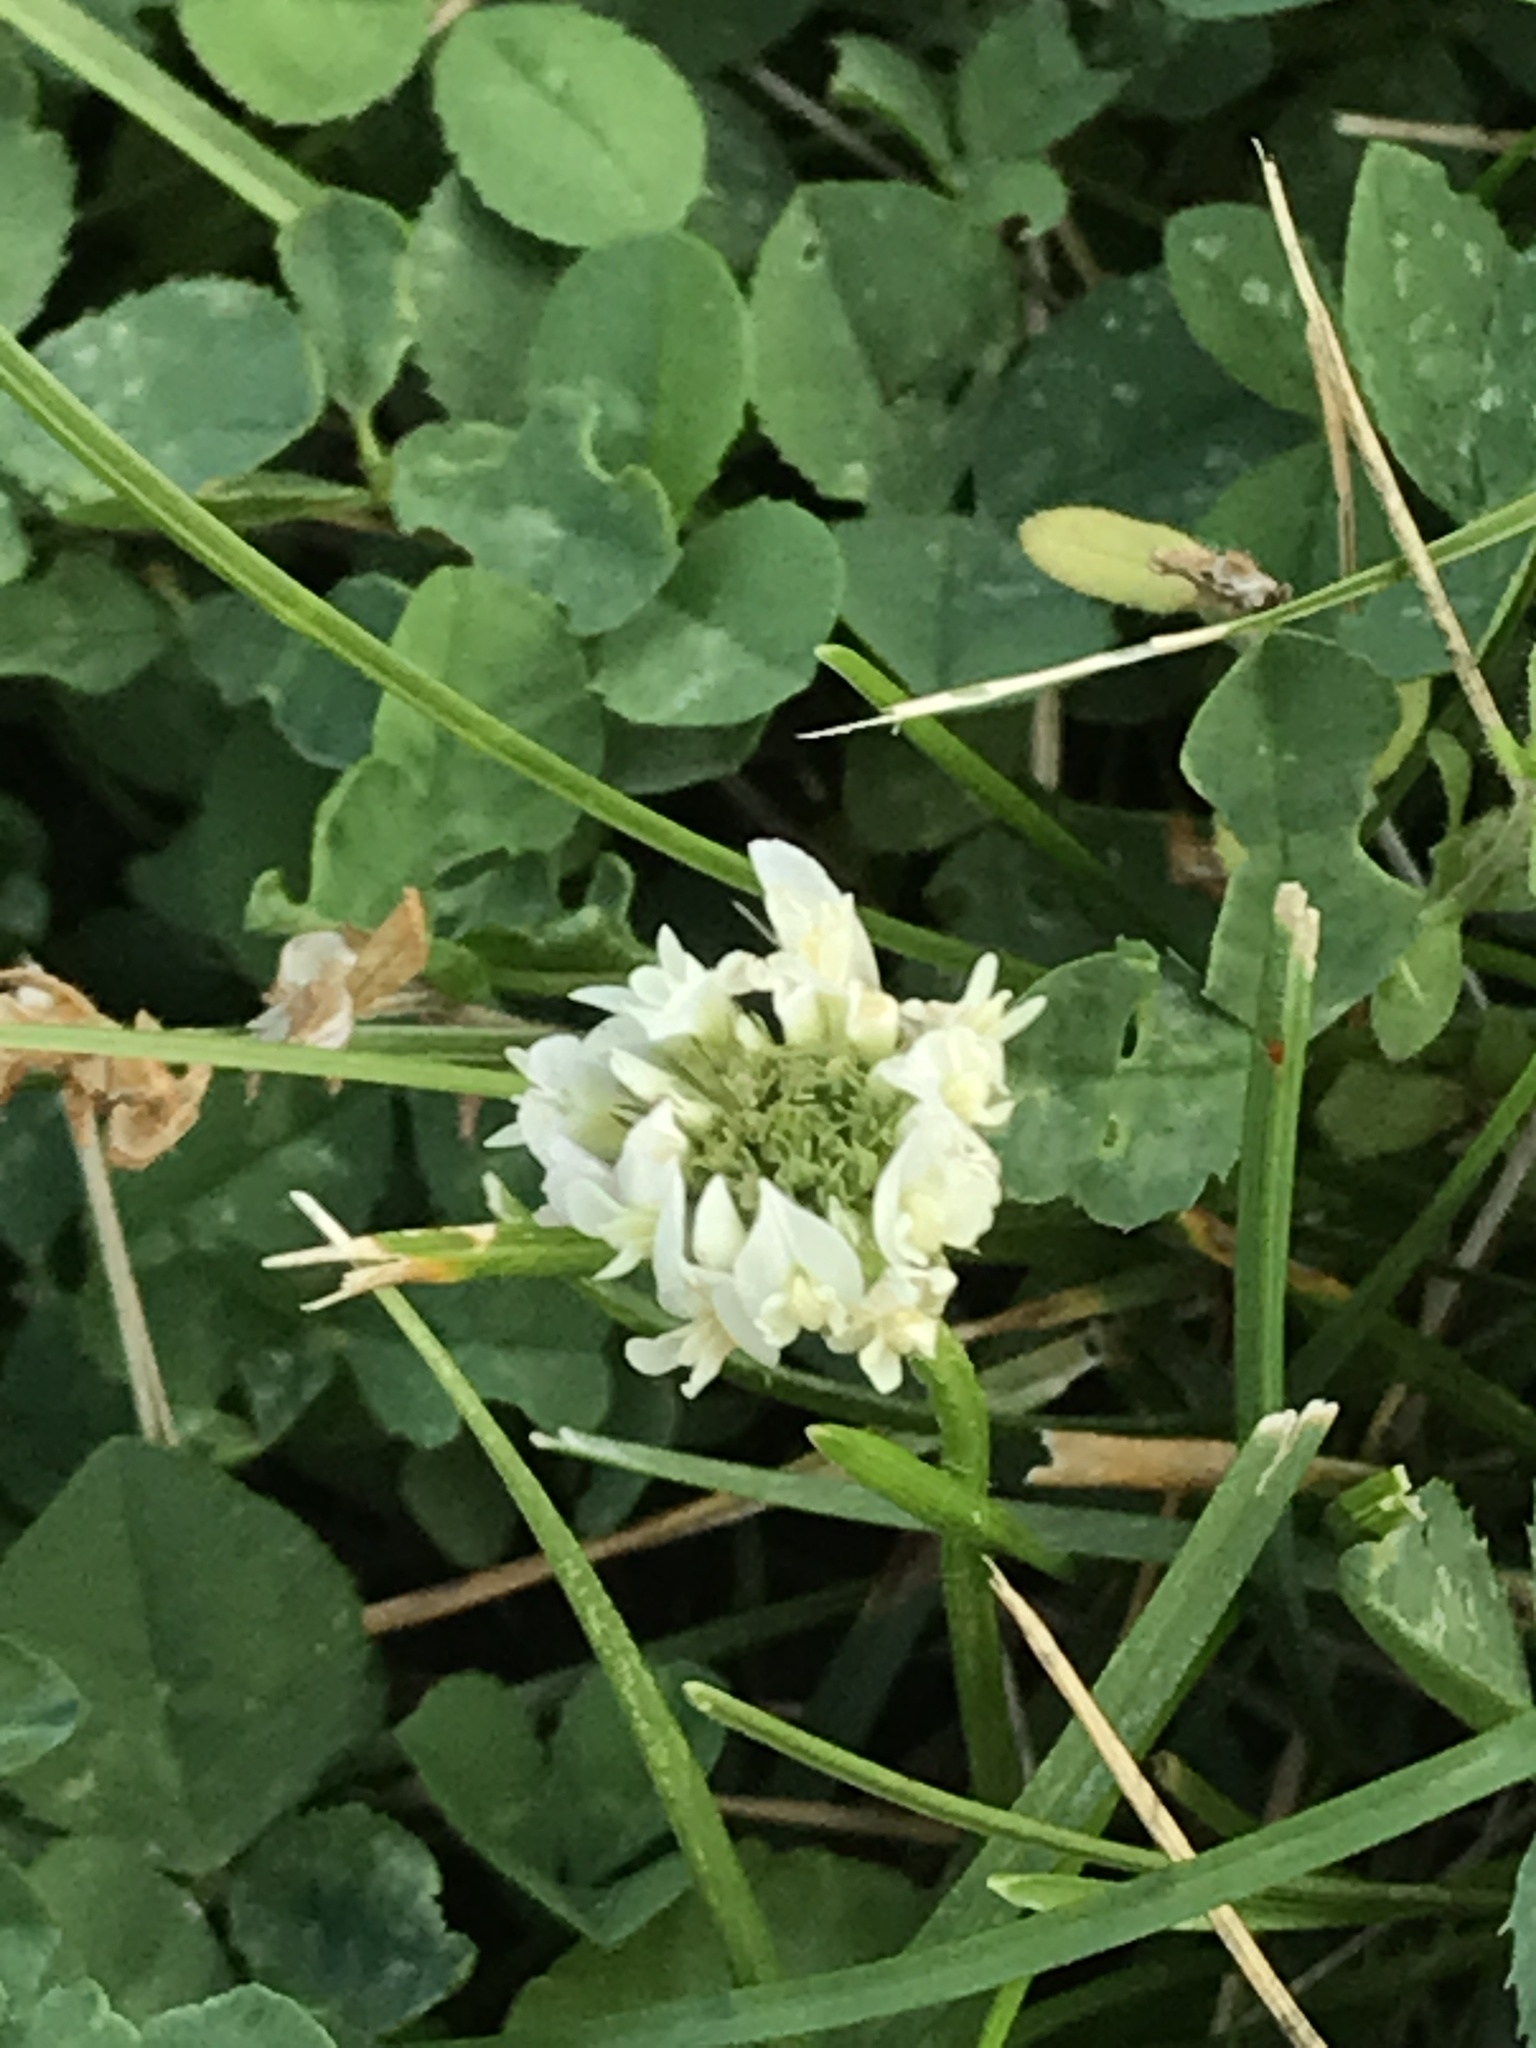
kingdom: Plantae
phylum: Tracheophyta
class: Magnoliopsida
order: Fabales
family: Fabaceae
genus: Trifolium
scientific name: Trifolium repens
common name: White clover
